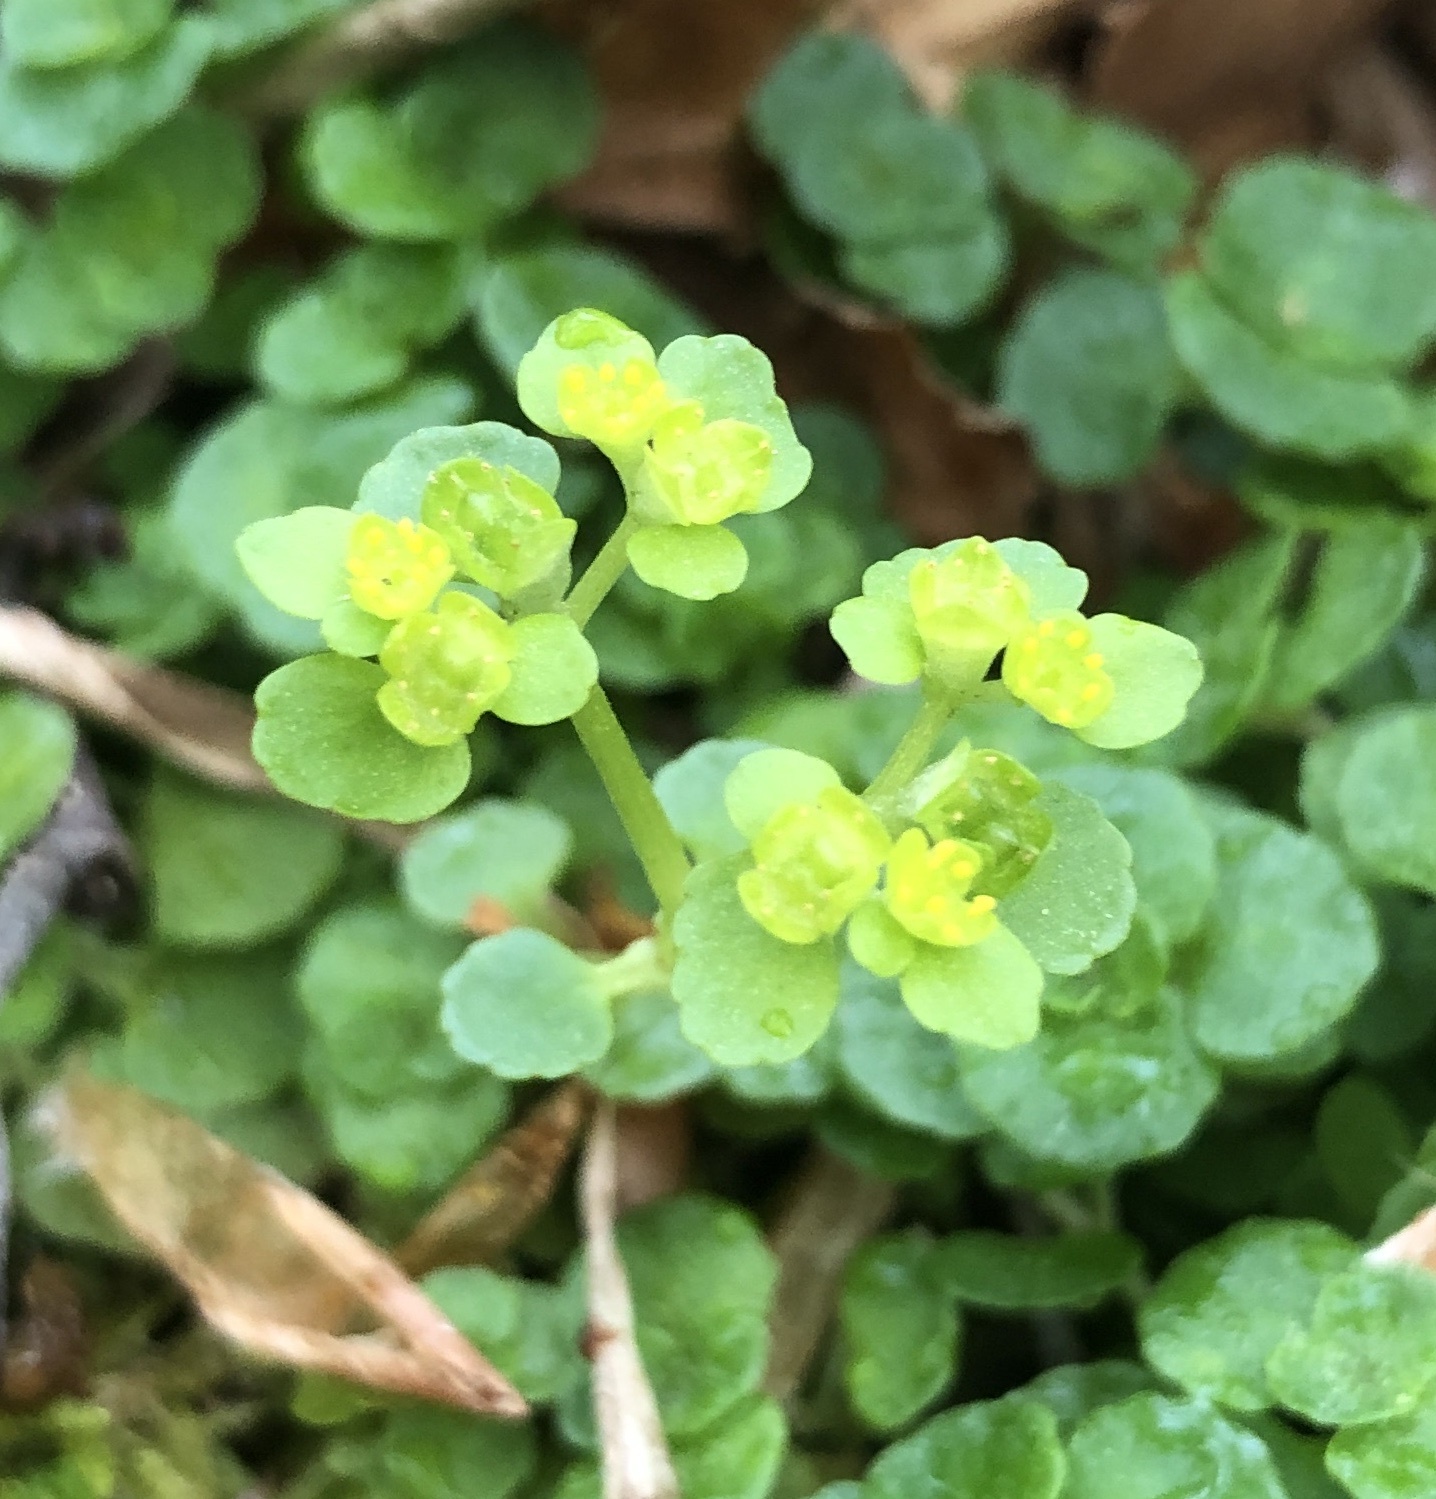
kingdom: Plantae
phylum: Tracheophyta
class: Magnoliopsida
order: Saxifragales
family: Saxifragaceae
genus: Chrysosplenium
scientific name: Chrysosplenium oppositifolium
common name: Opposite-leaved golden-saxifrage
